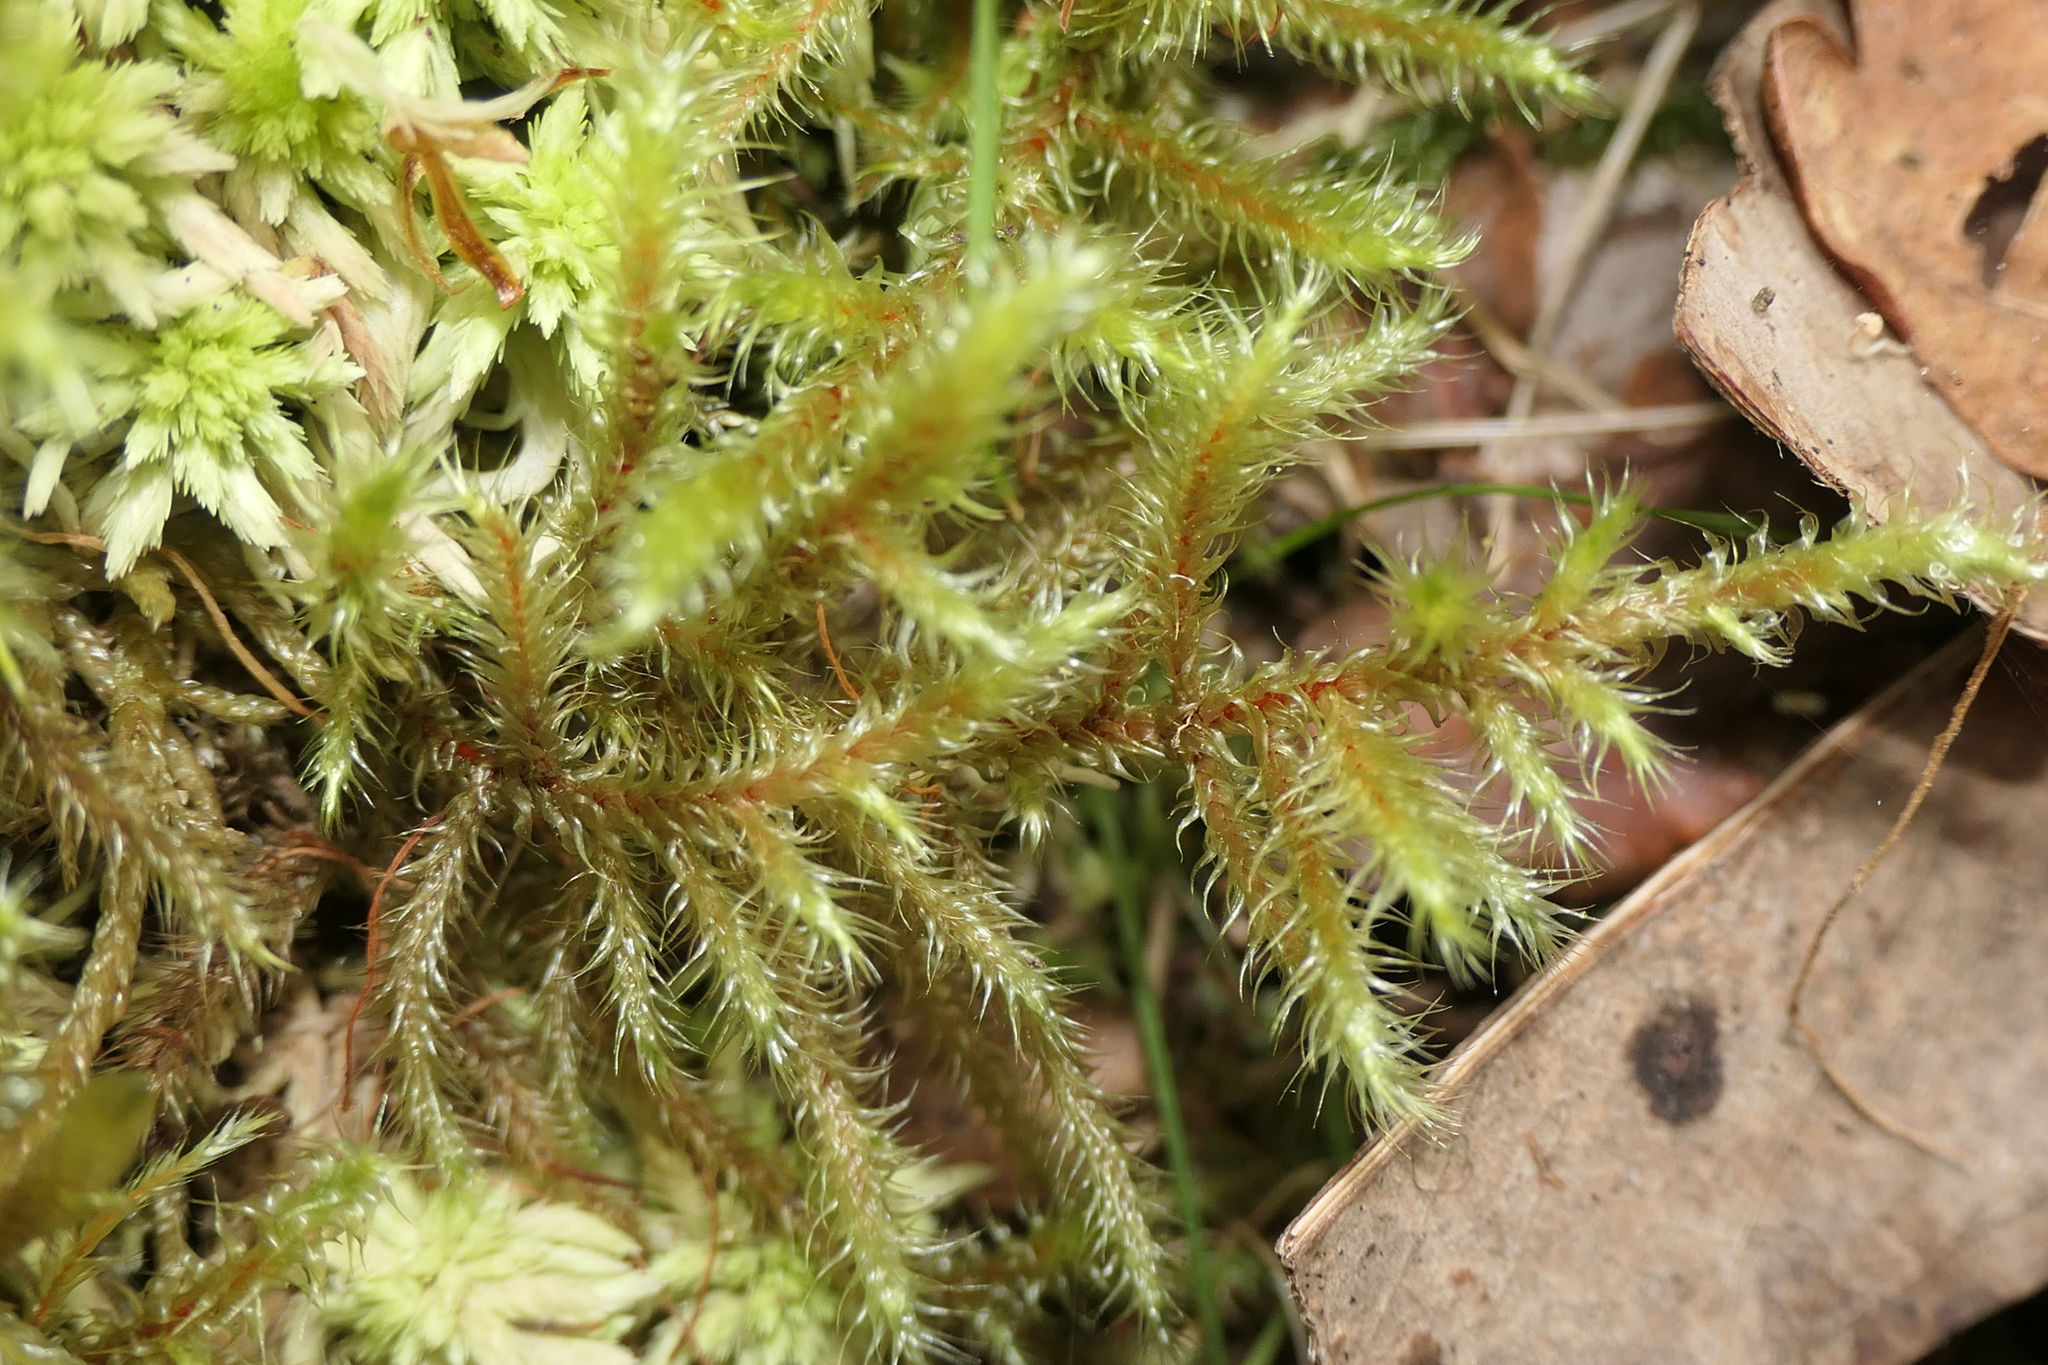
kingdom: Plantae
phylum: Bryophyta
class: Bryopsida
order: Hypnales
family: Hylocomiaceae
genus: Rhytidiadelphus
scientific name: Rhytidiadelphus loreus
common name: Lanky moss
